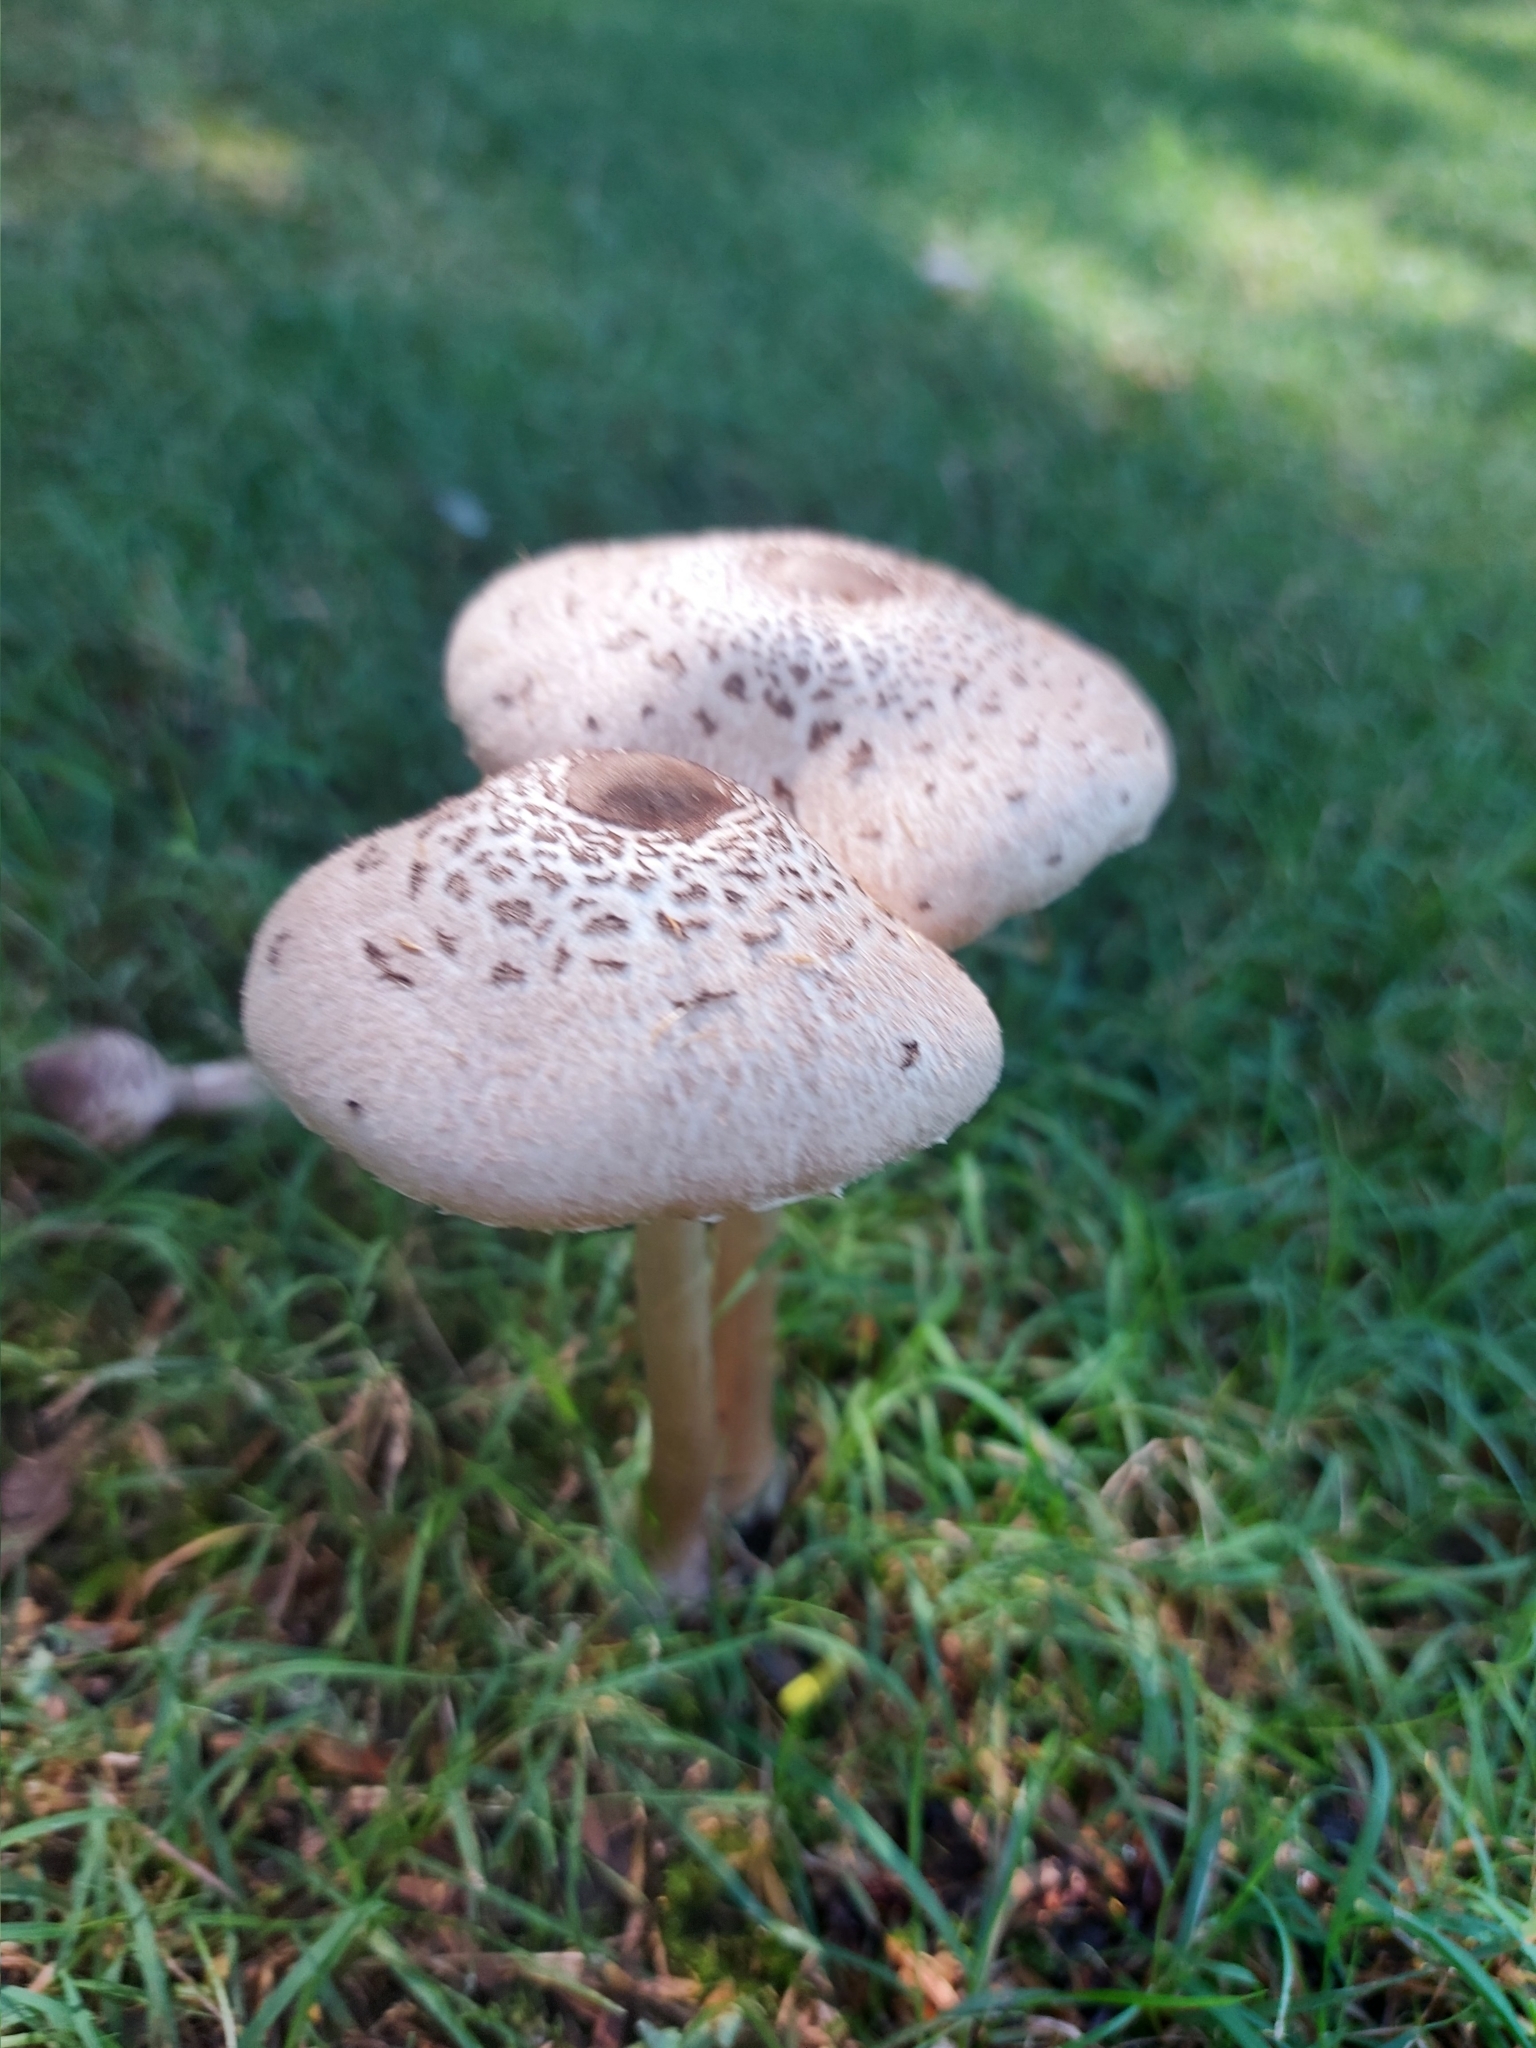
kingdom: Fungi
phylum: Basidiomycota
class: Agaricomycetes
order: Agaricales
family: Agaricaceae
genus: Macrolepiota
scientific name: Macrolepiota clelandii
